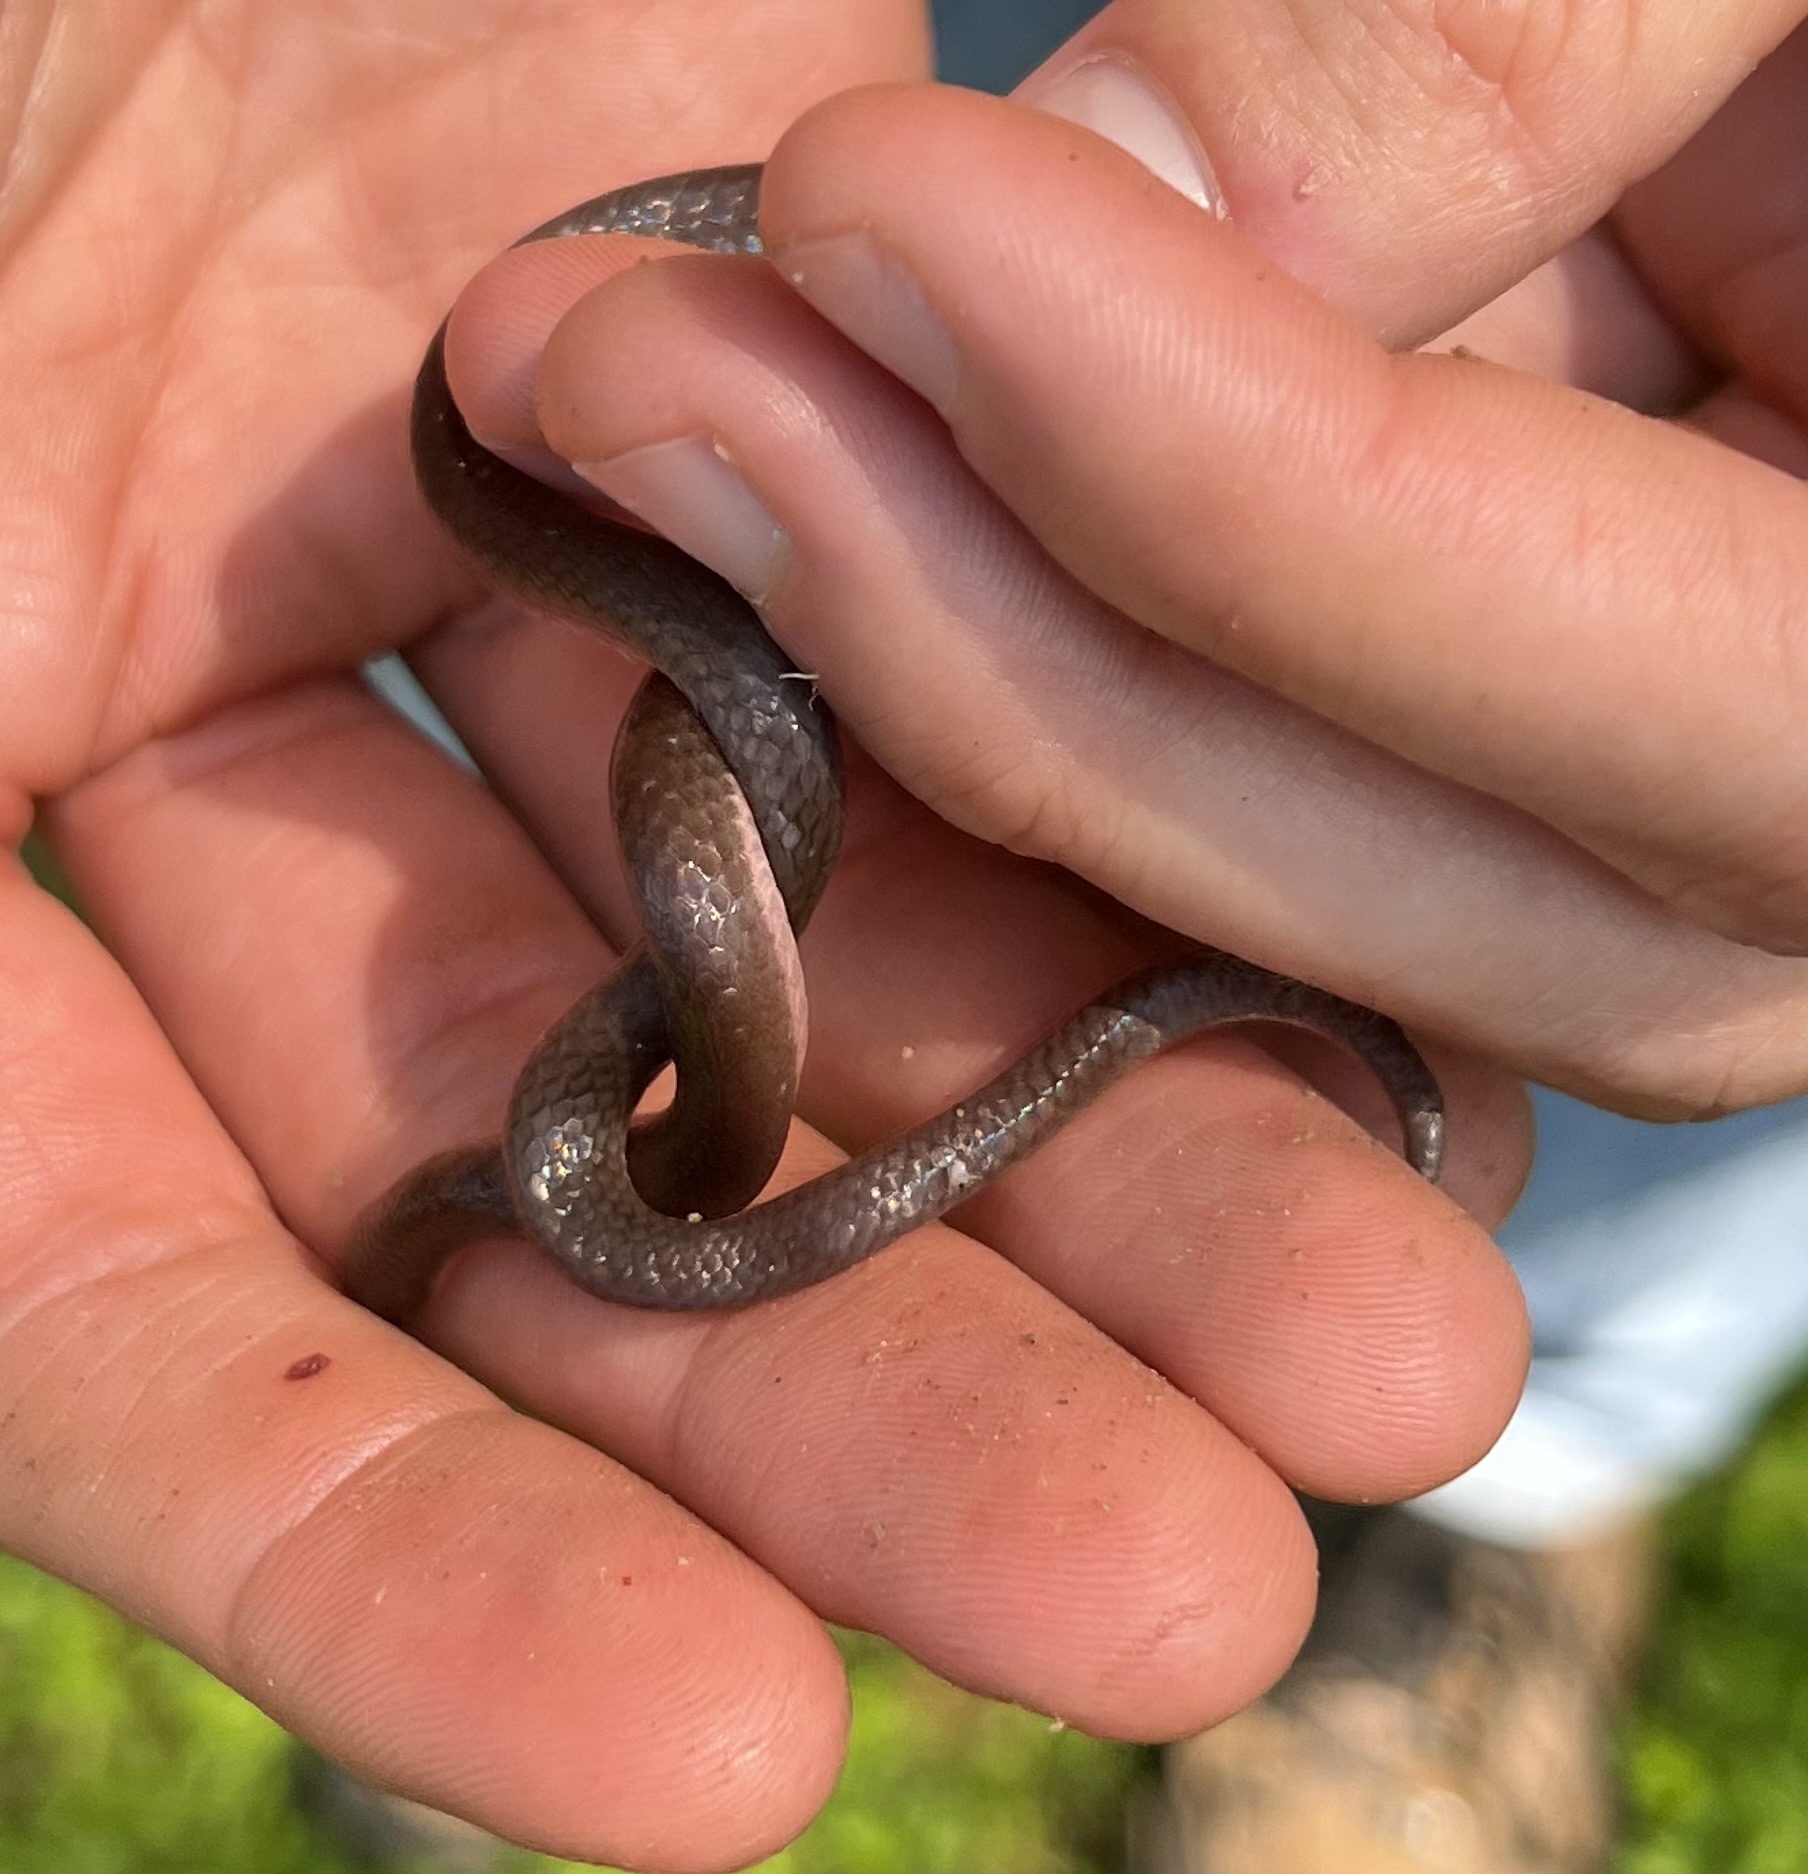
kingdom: Animalia
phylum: Chordata
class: Squamata
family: Colubridae
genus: Carphophis
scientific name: Carphophis amoenus
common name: Eastern worm snake
